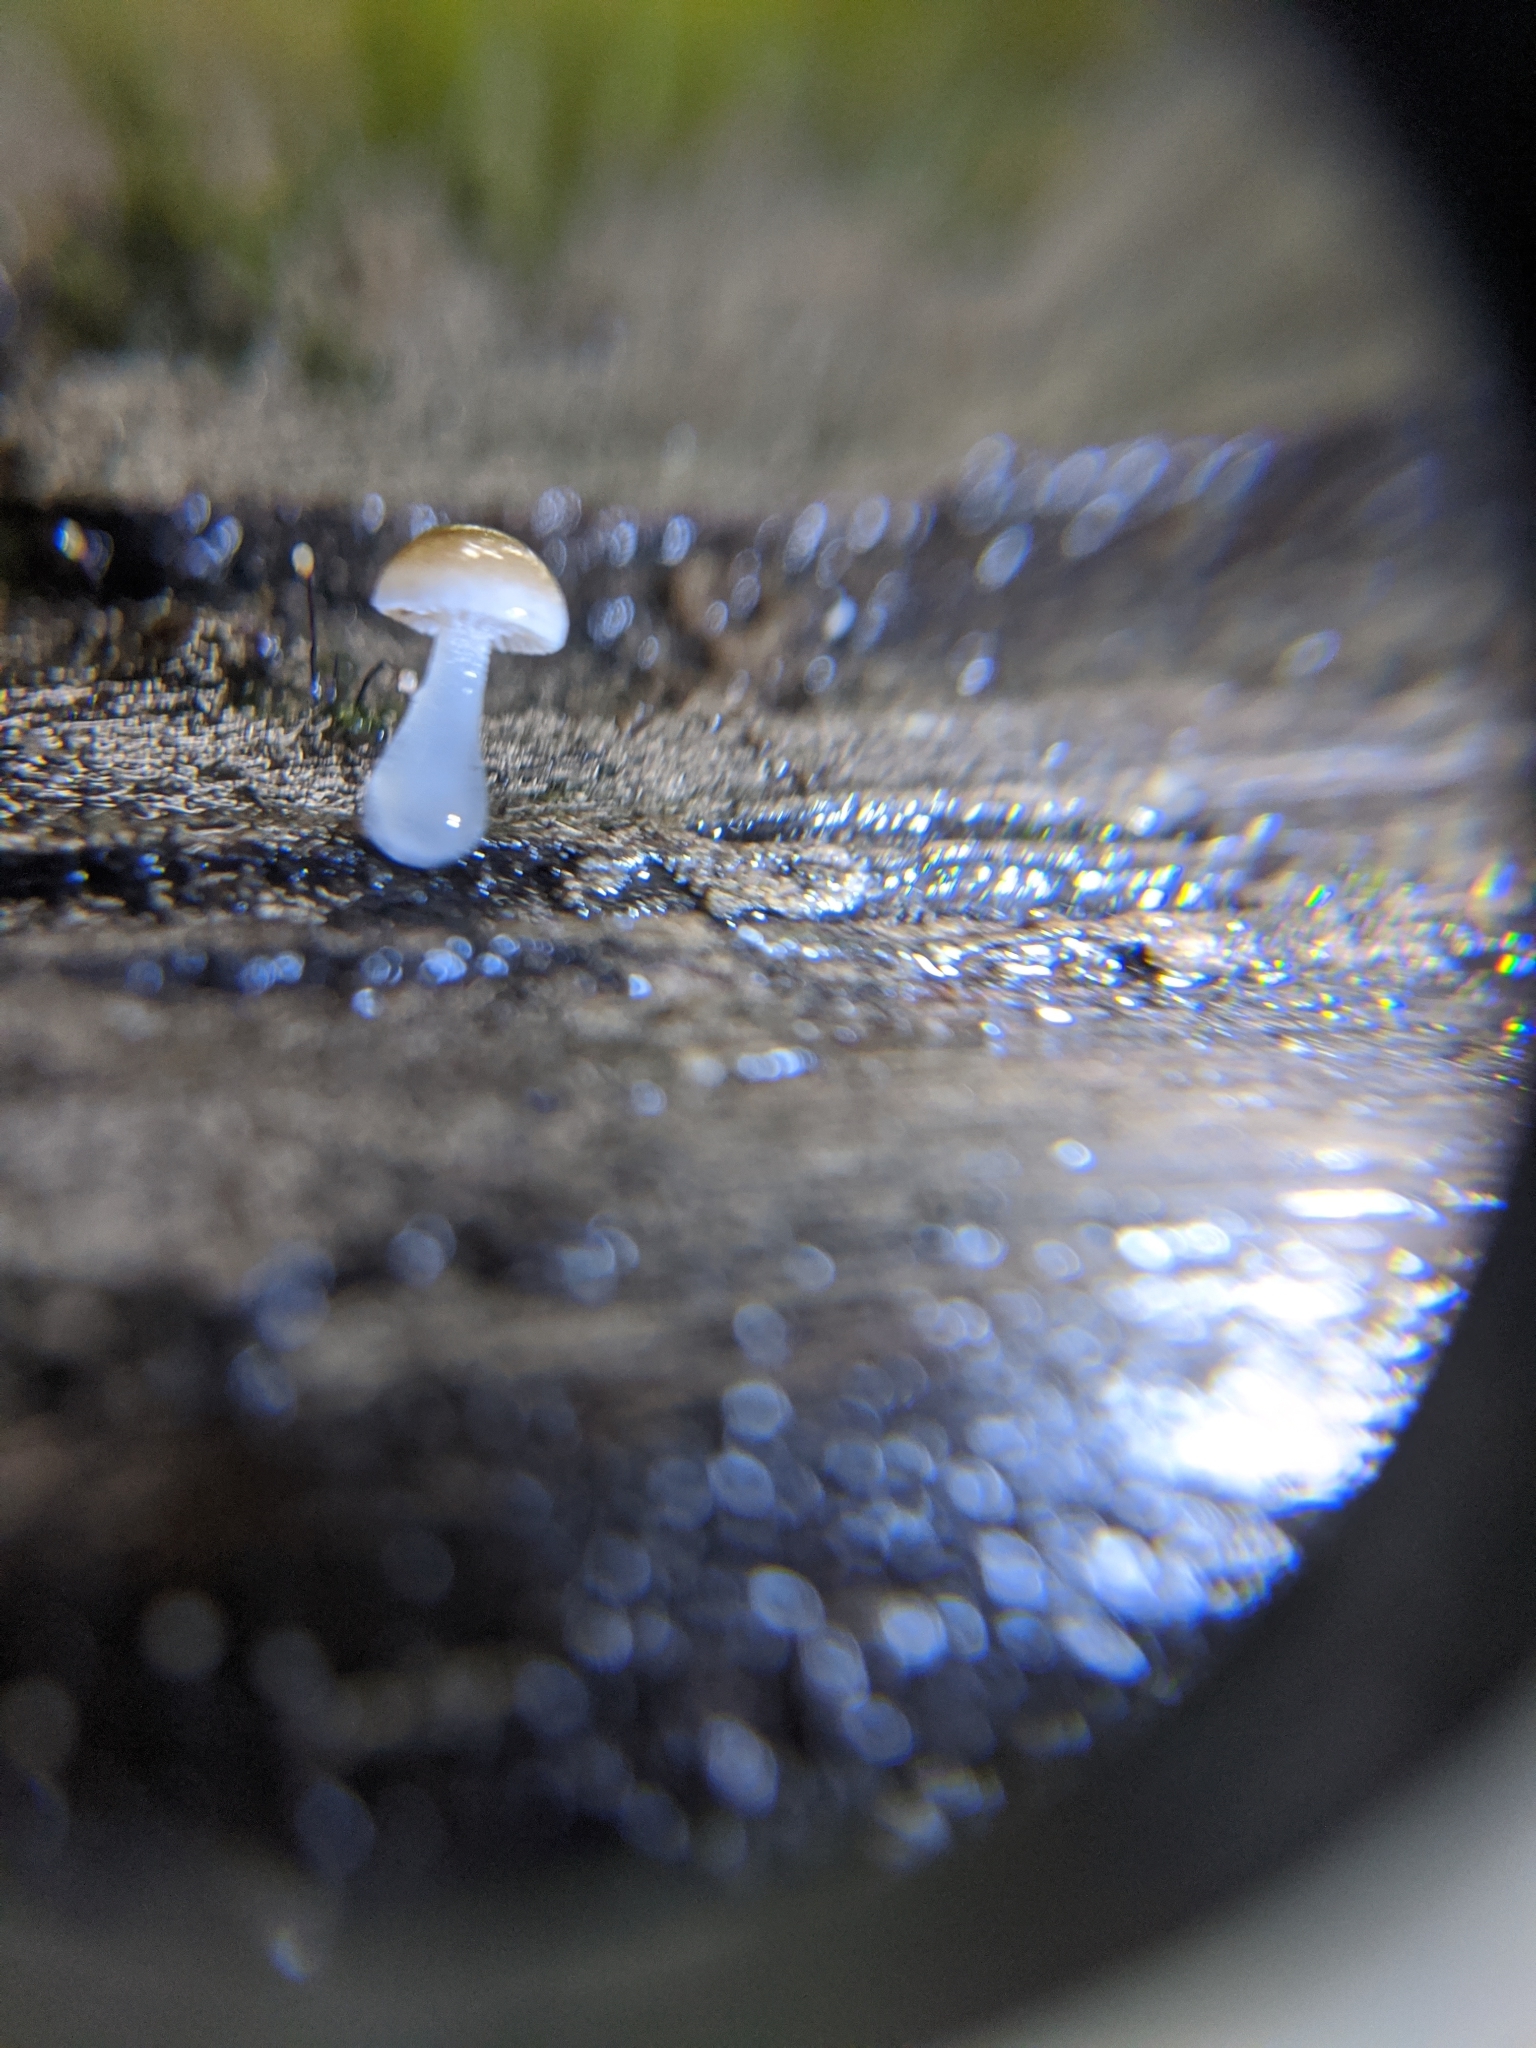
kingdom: Fungi
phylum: Basidiomycota
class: Agaricomycetes
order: Agaricales
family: Mycenaceae
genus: Roridomyces
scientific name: Roridomyces austrororidus
